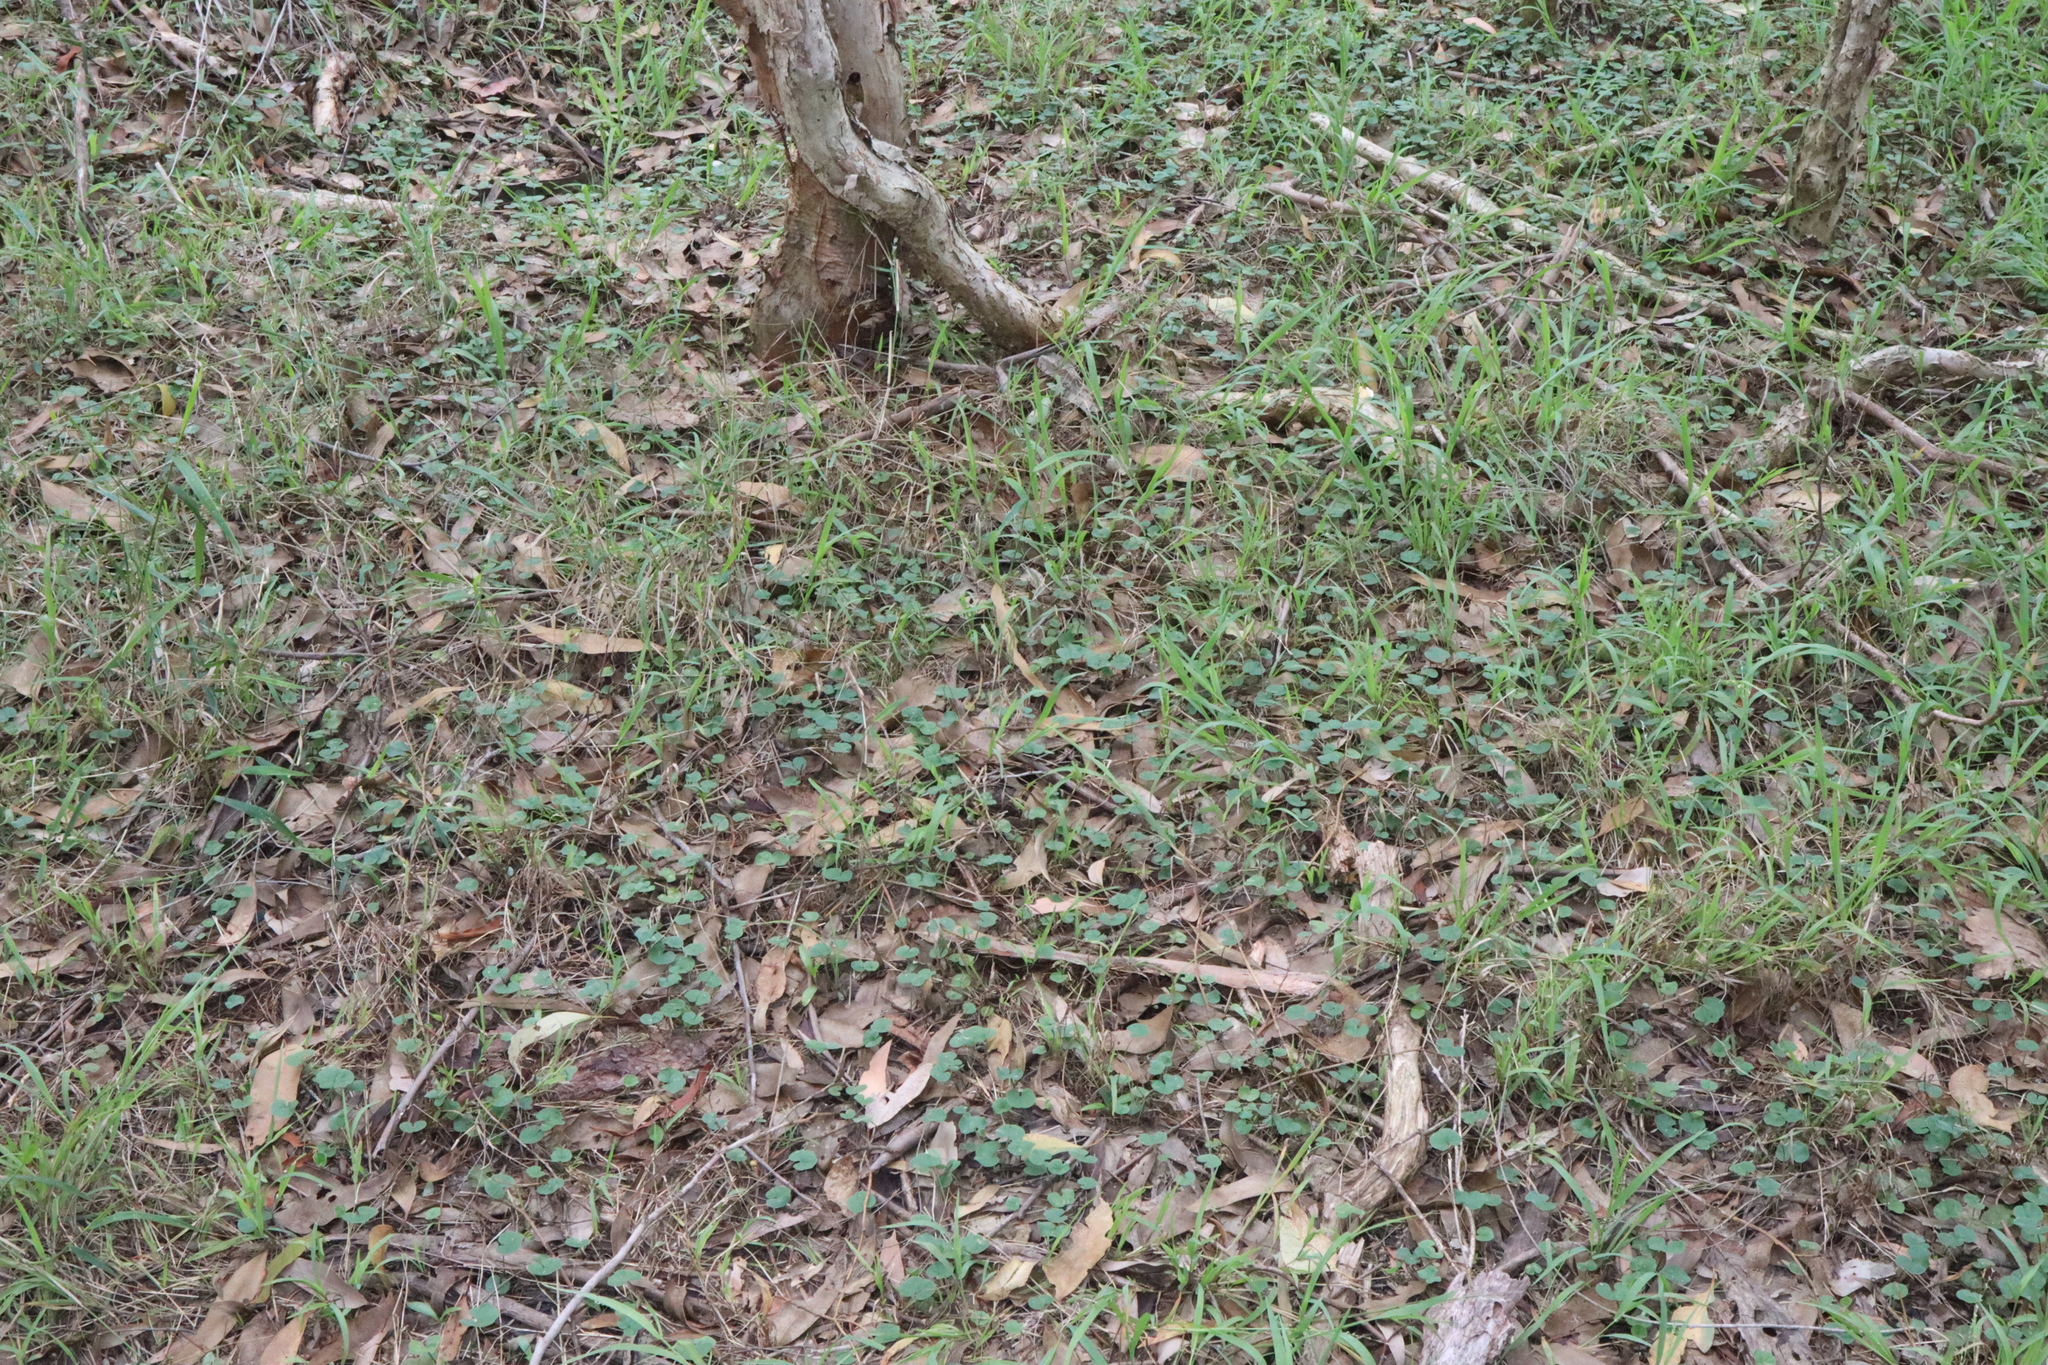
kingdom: Plantae
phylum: Tracheophyta
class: Magnoliopsida
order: Solanales
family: Convolvulaceae
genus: Dichondra
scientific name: Dichondra repens
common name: Kidneyweed
